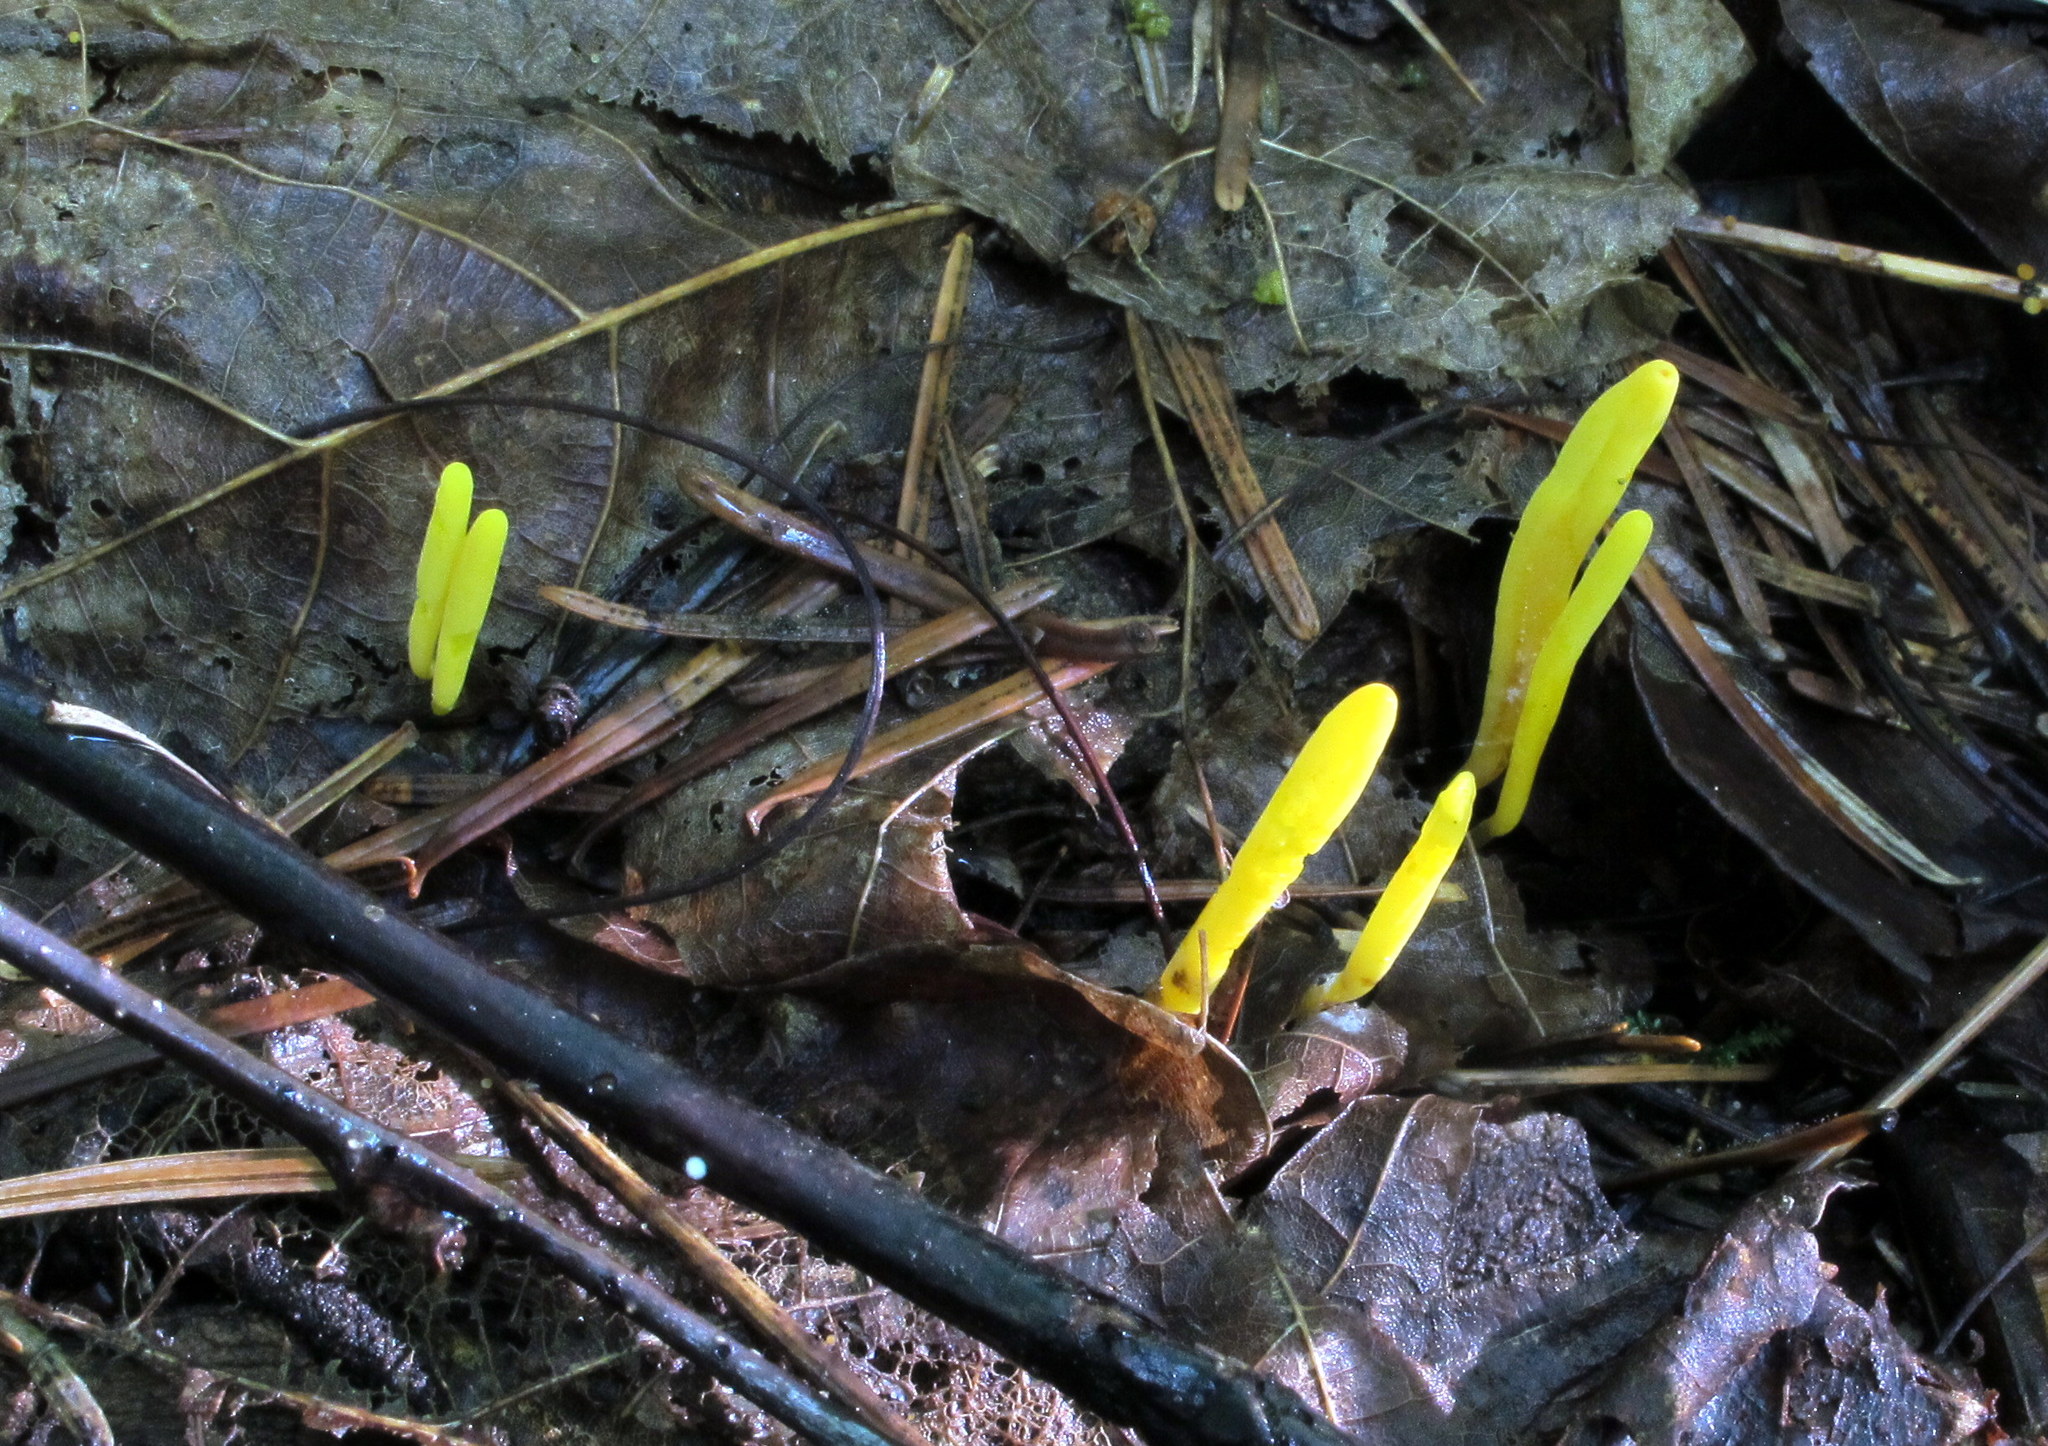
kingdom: Fungi
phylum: Basidiomycota
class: Agaricomycetes
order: Agaricales
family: Clavariaceae
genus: Clavulinopsis
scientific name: Clavulinopsis laeticolor
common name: Handsome club
